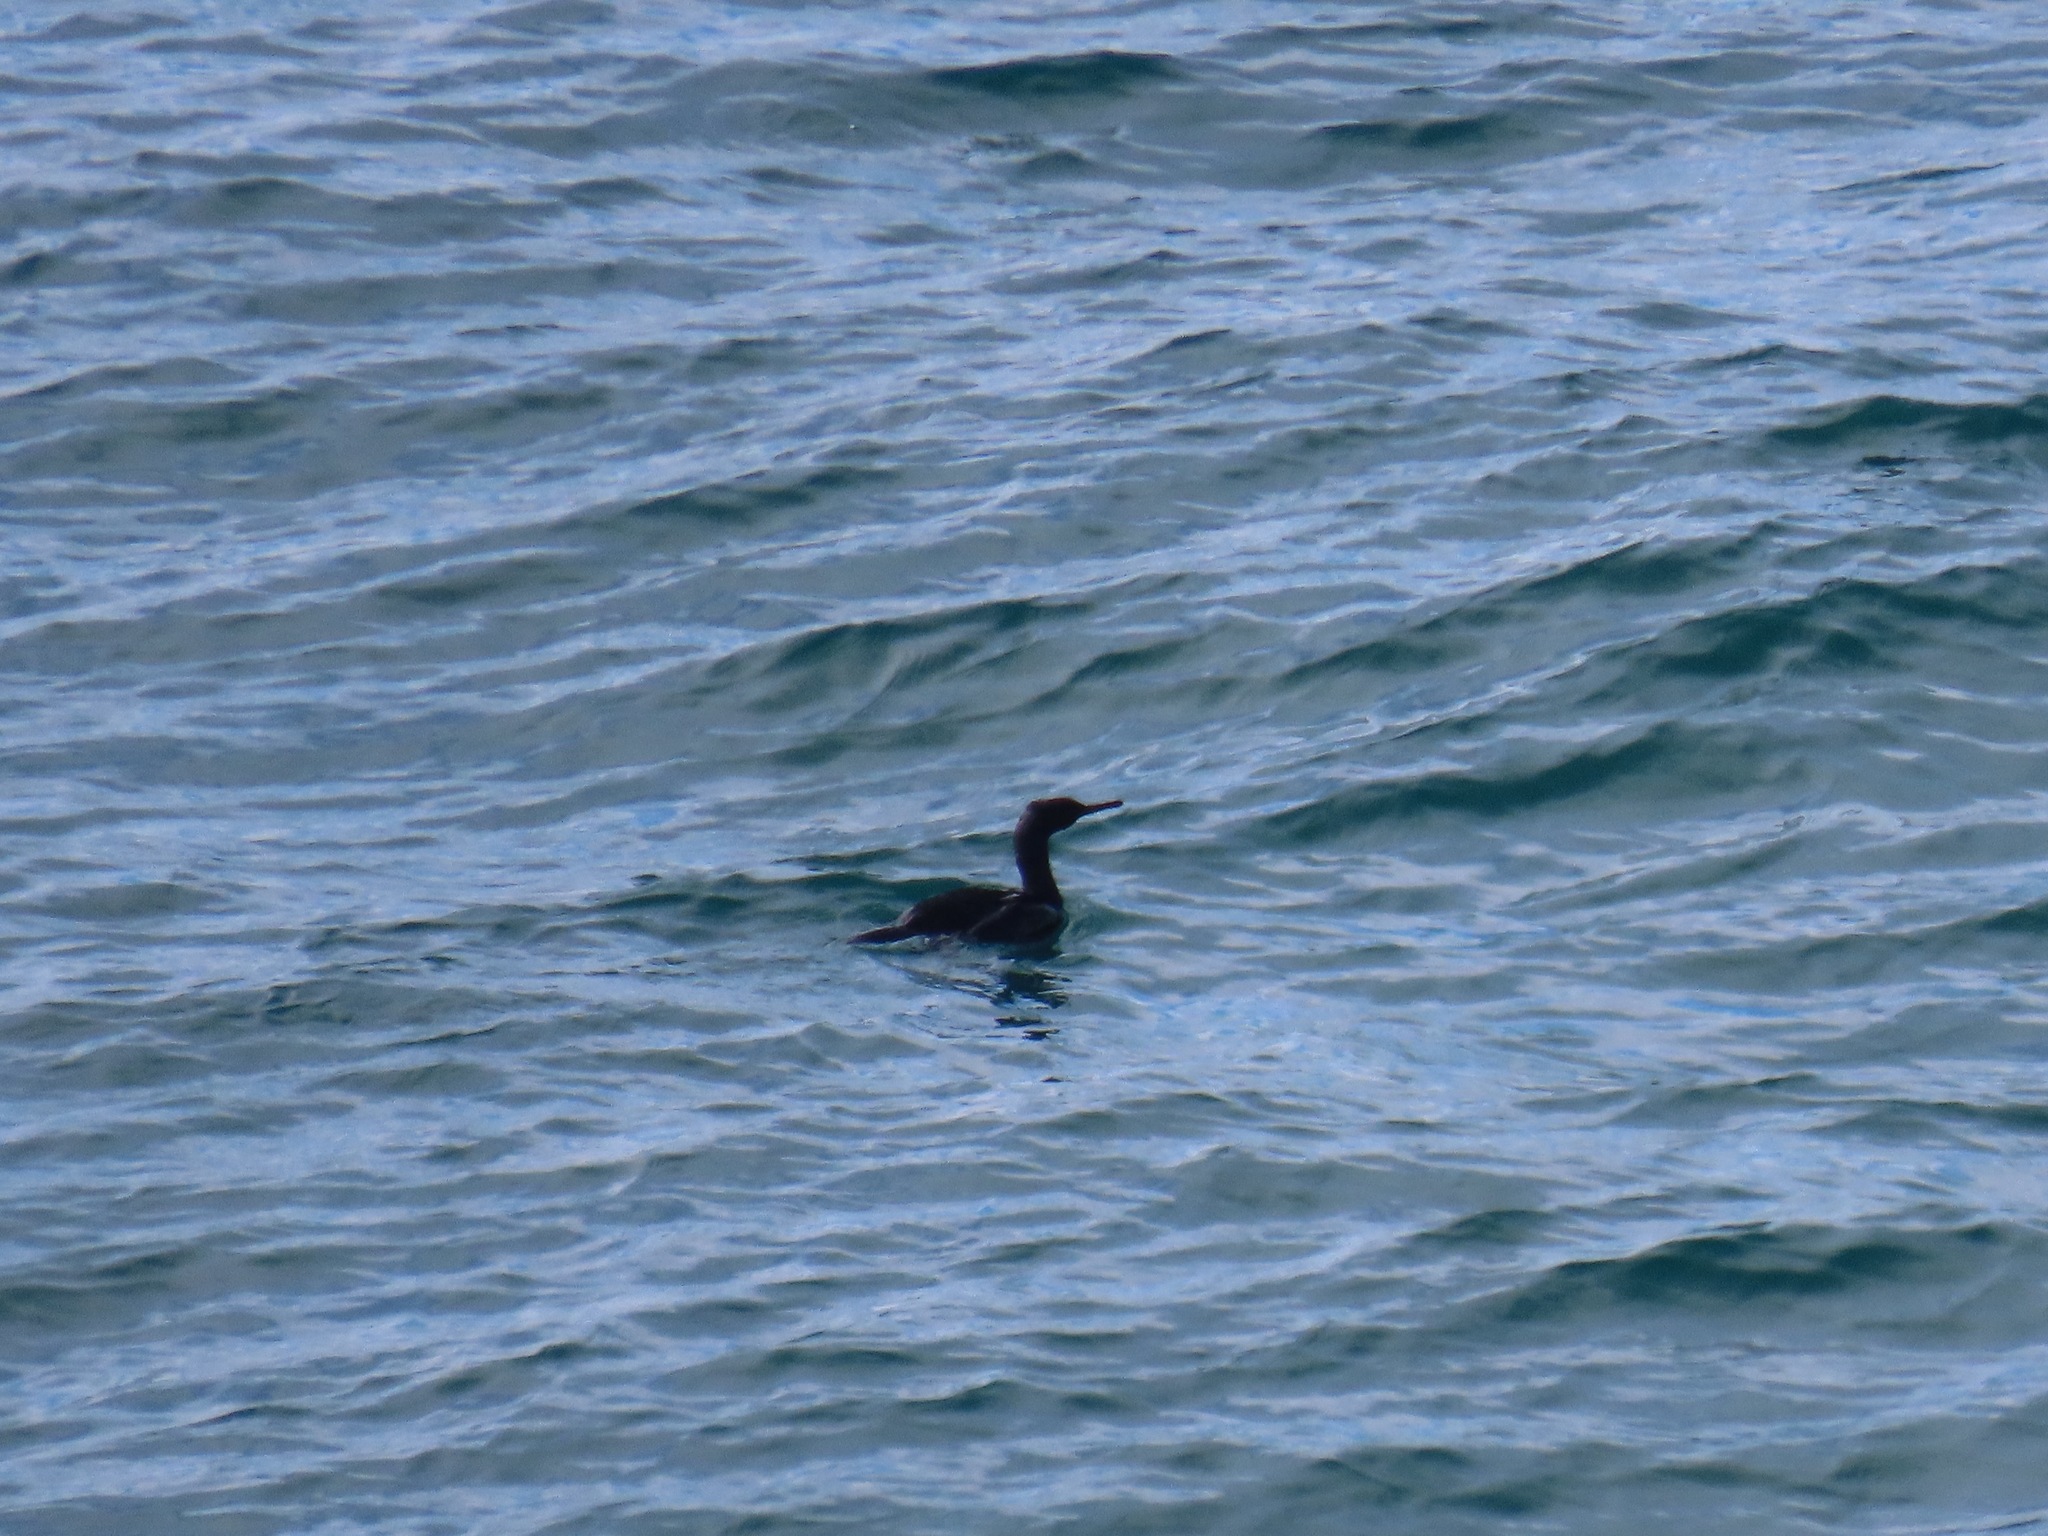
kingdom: Animalia
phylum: Chordata
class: Aves
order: Suliformes
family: Phalacrocoracidae
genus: Phalacrocorax
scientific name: Phalacrocorax pelagicus
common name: Pelagic cormorant
